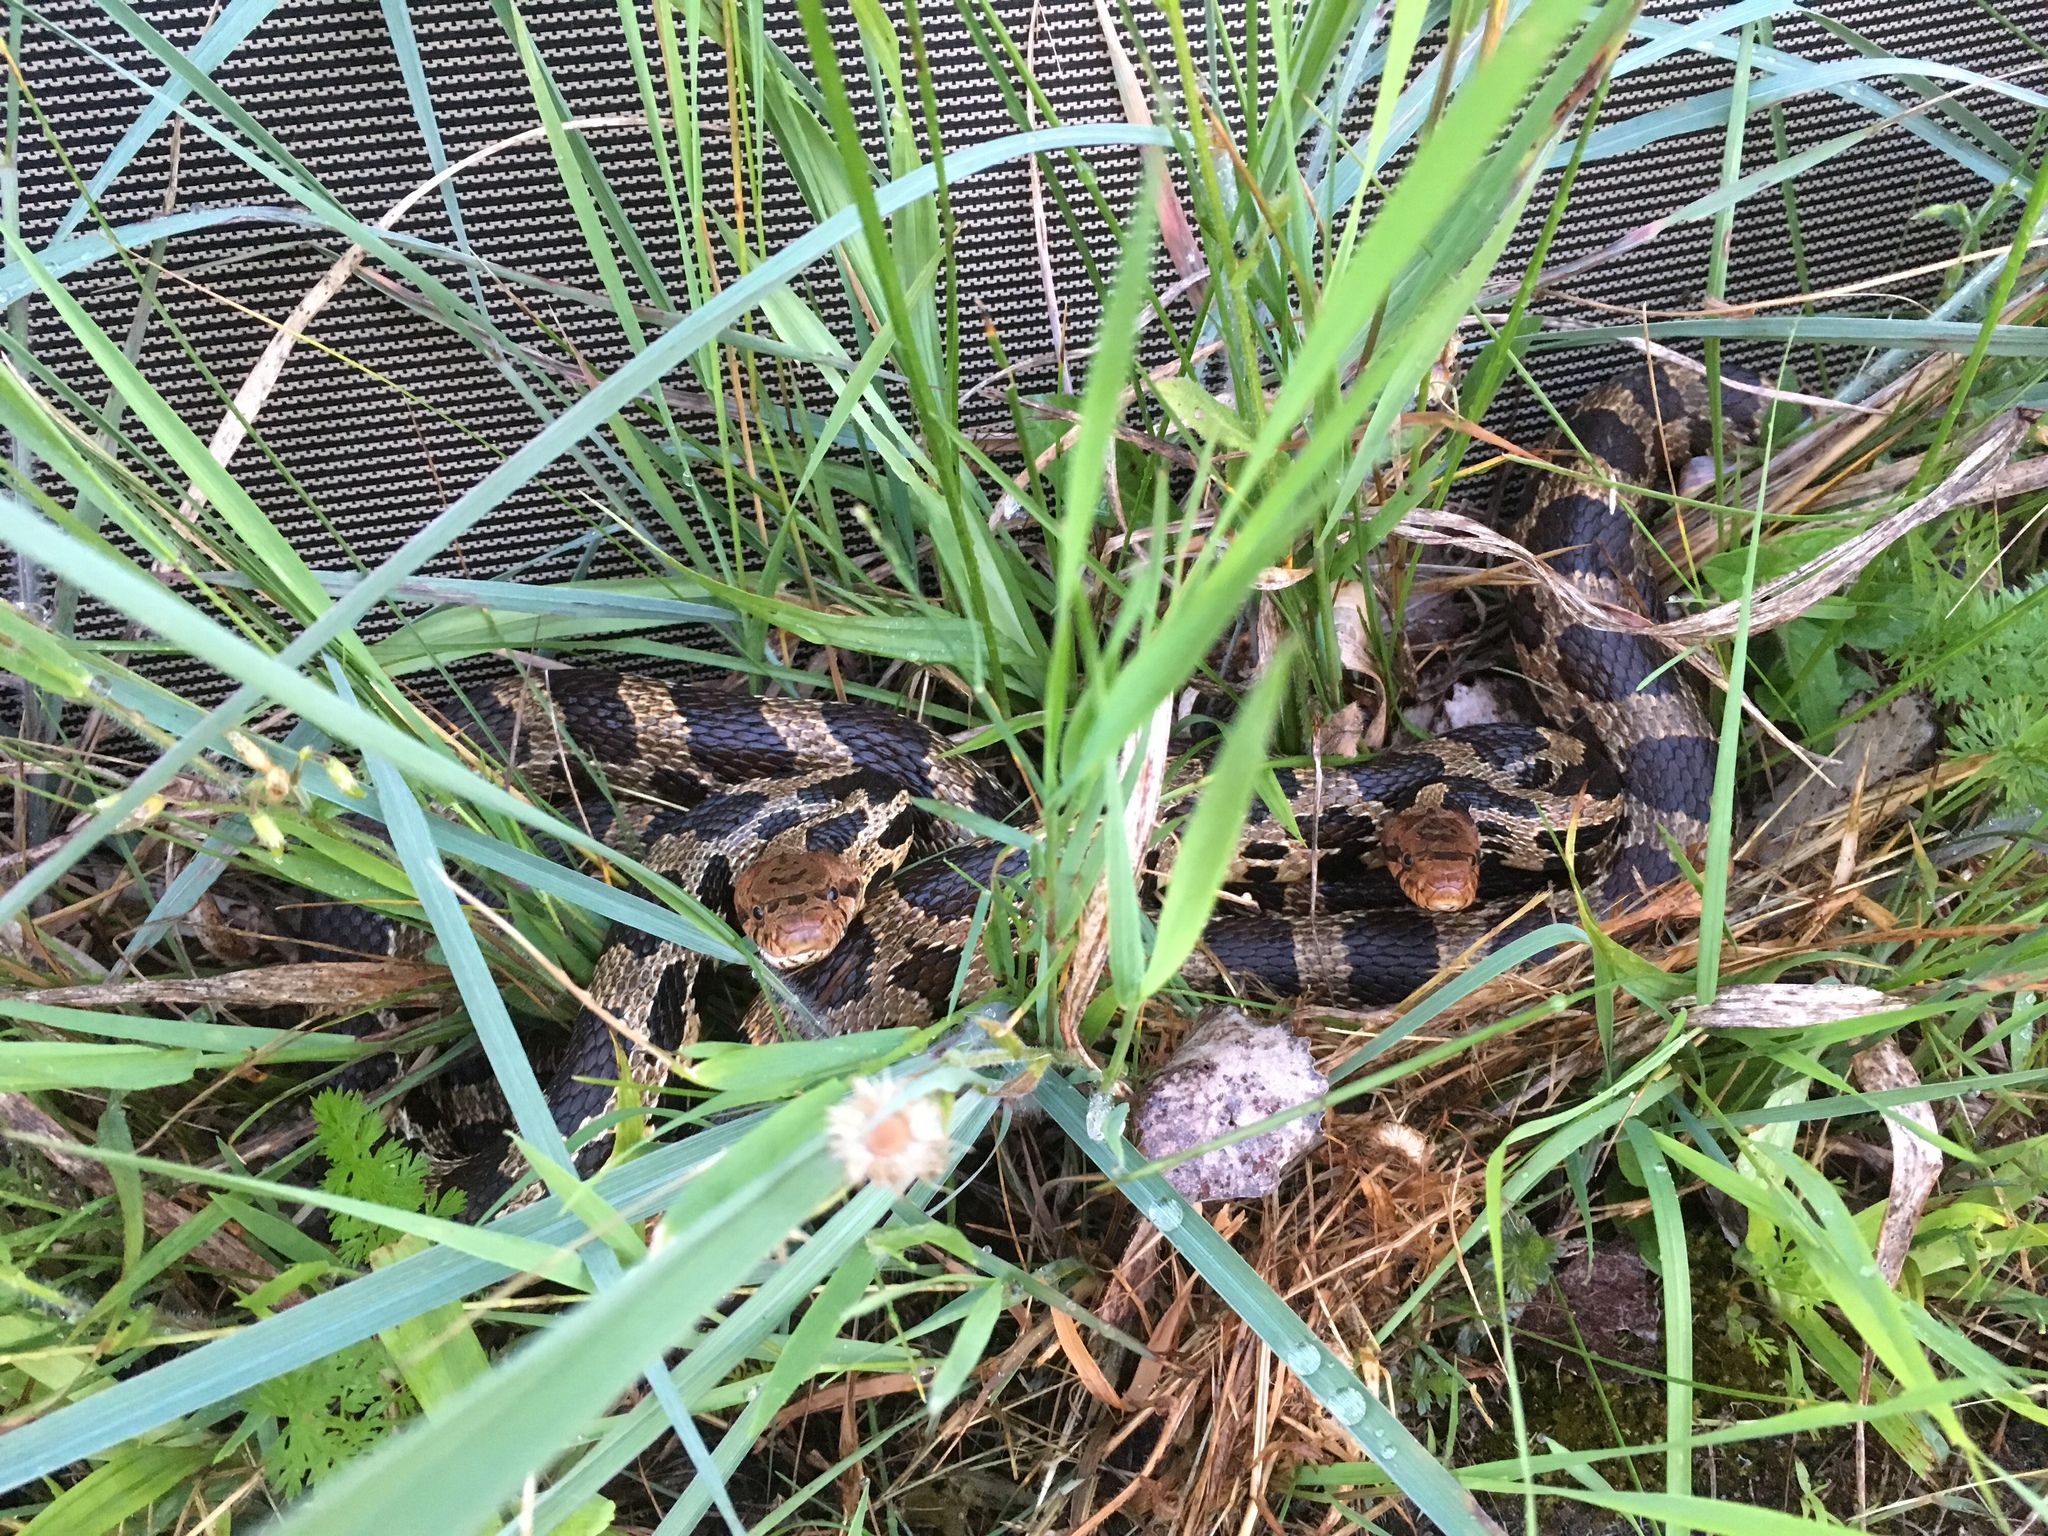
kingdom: Animalia
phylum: Chordata
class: Squamata
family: Colubridae
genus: Pantherophis
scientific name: Pantherophis vulpinus
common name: Eastern fox snake
